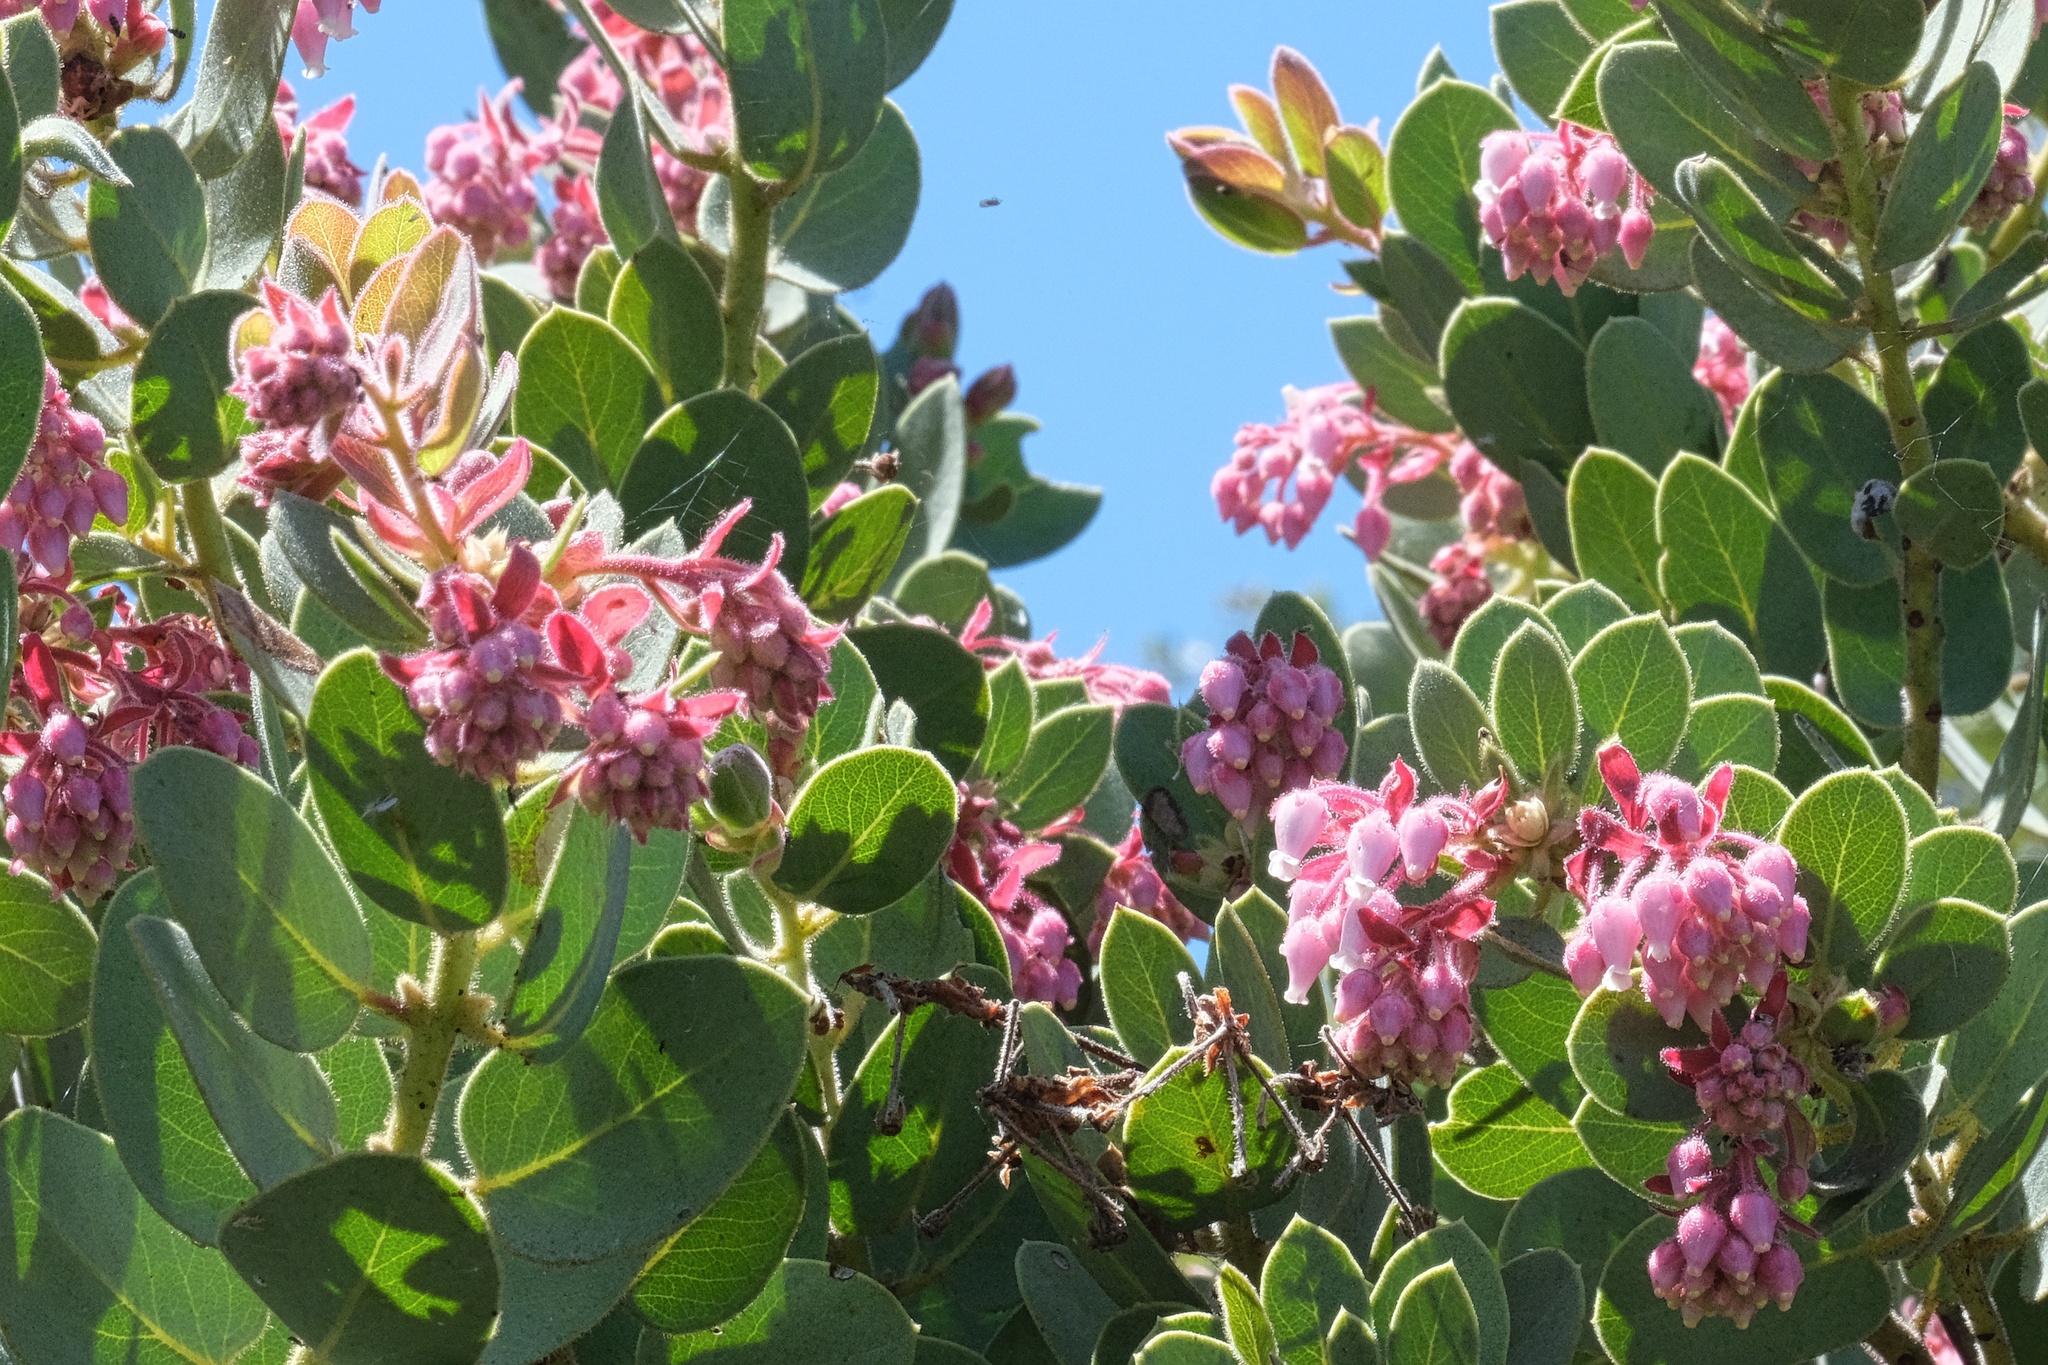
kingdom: Plantae
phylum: Tracheophyta
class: Magnoliopsida
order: Ericales
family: Ericaceae
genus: Arctostaphylos
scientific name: Arctostaphylos pringlei
